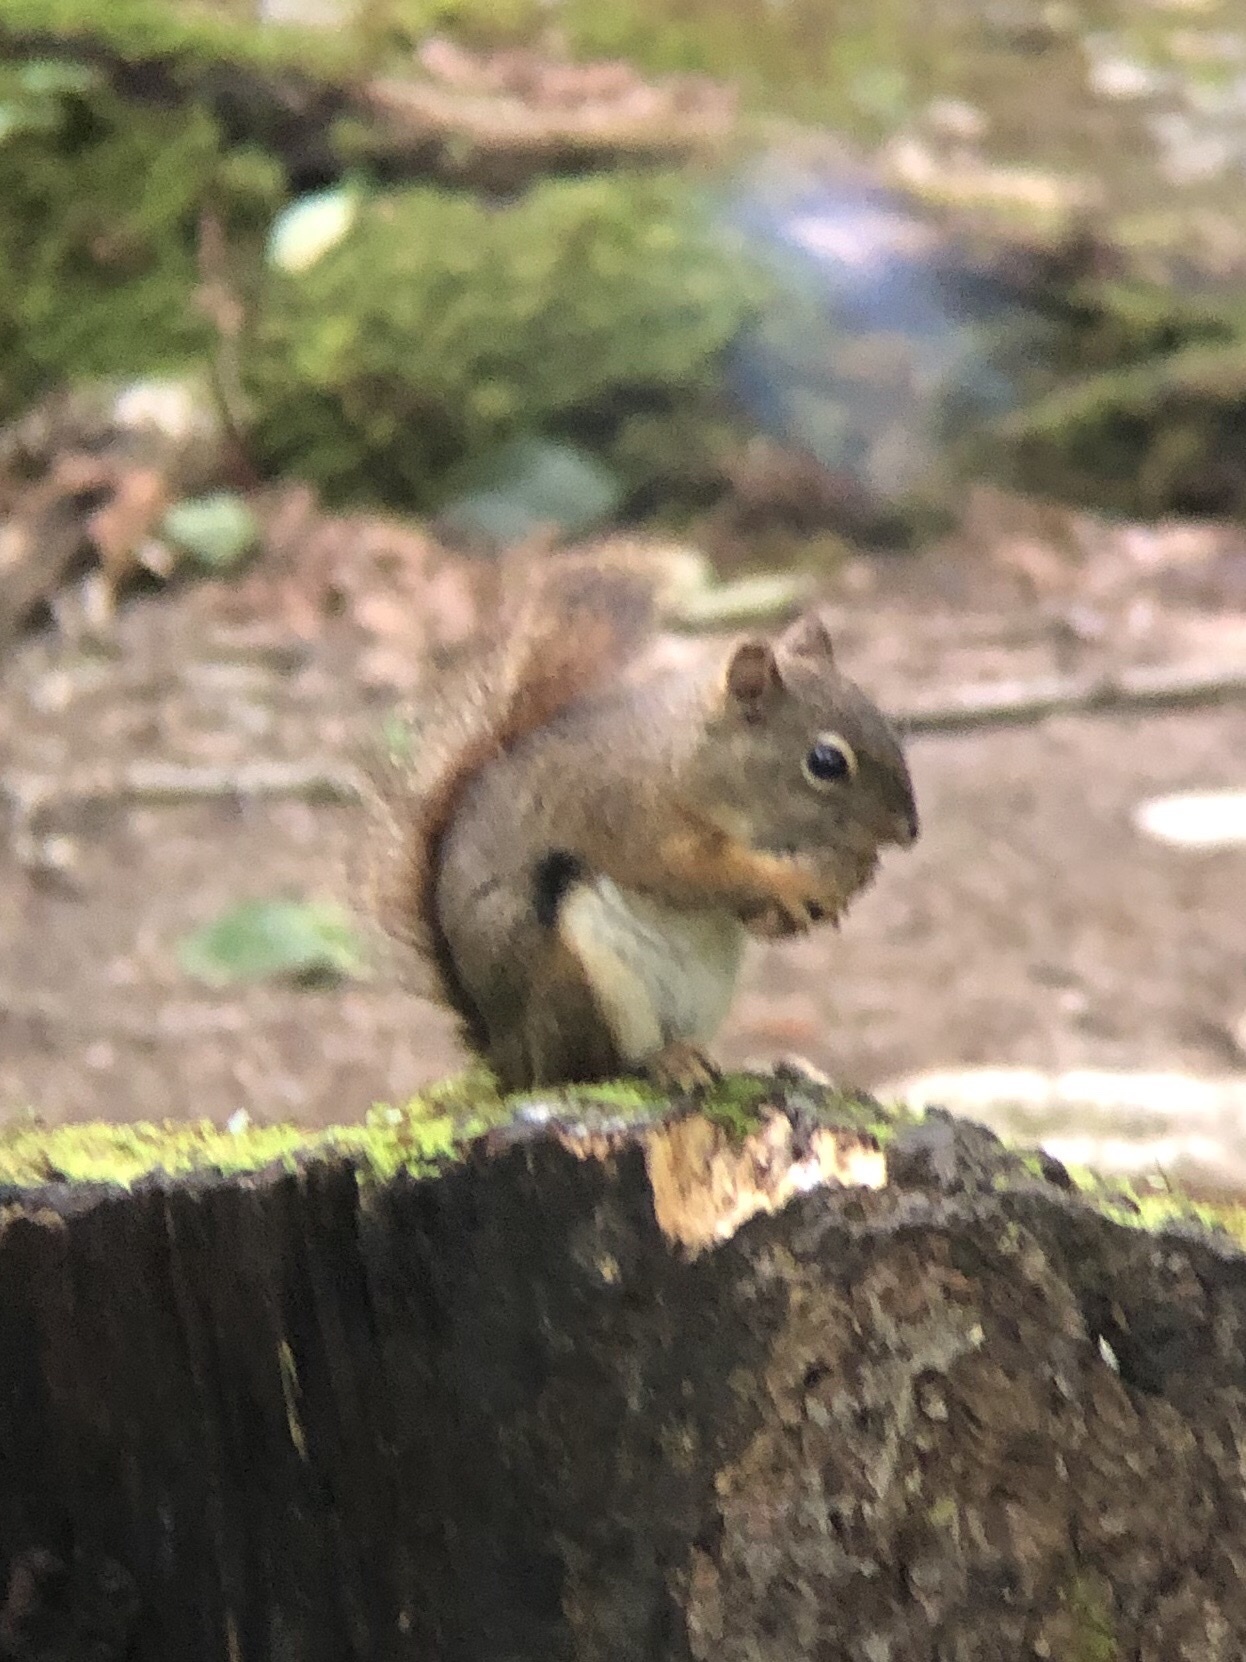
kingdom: Animalia
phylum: Chordata
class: Mammalia
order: Rodentia
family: Sciuridae
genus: Tamiasciurus
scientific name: Tamiasciurus hudsonicus
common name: Red squirrel
